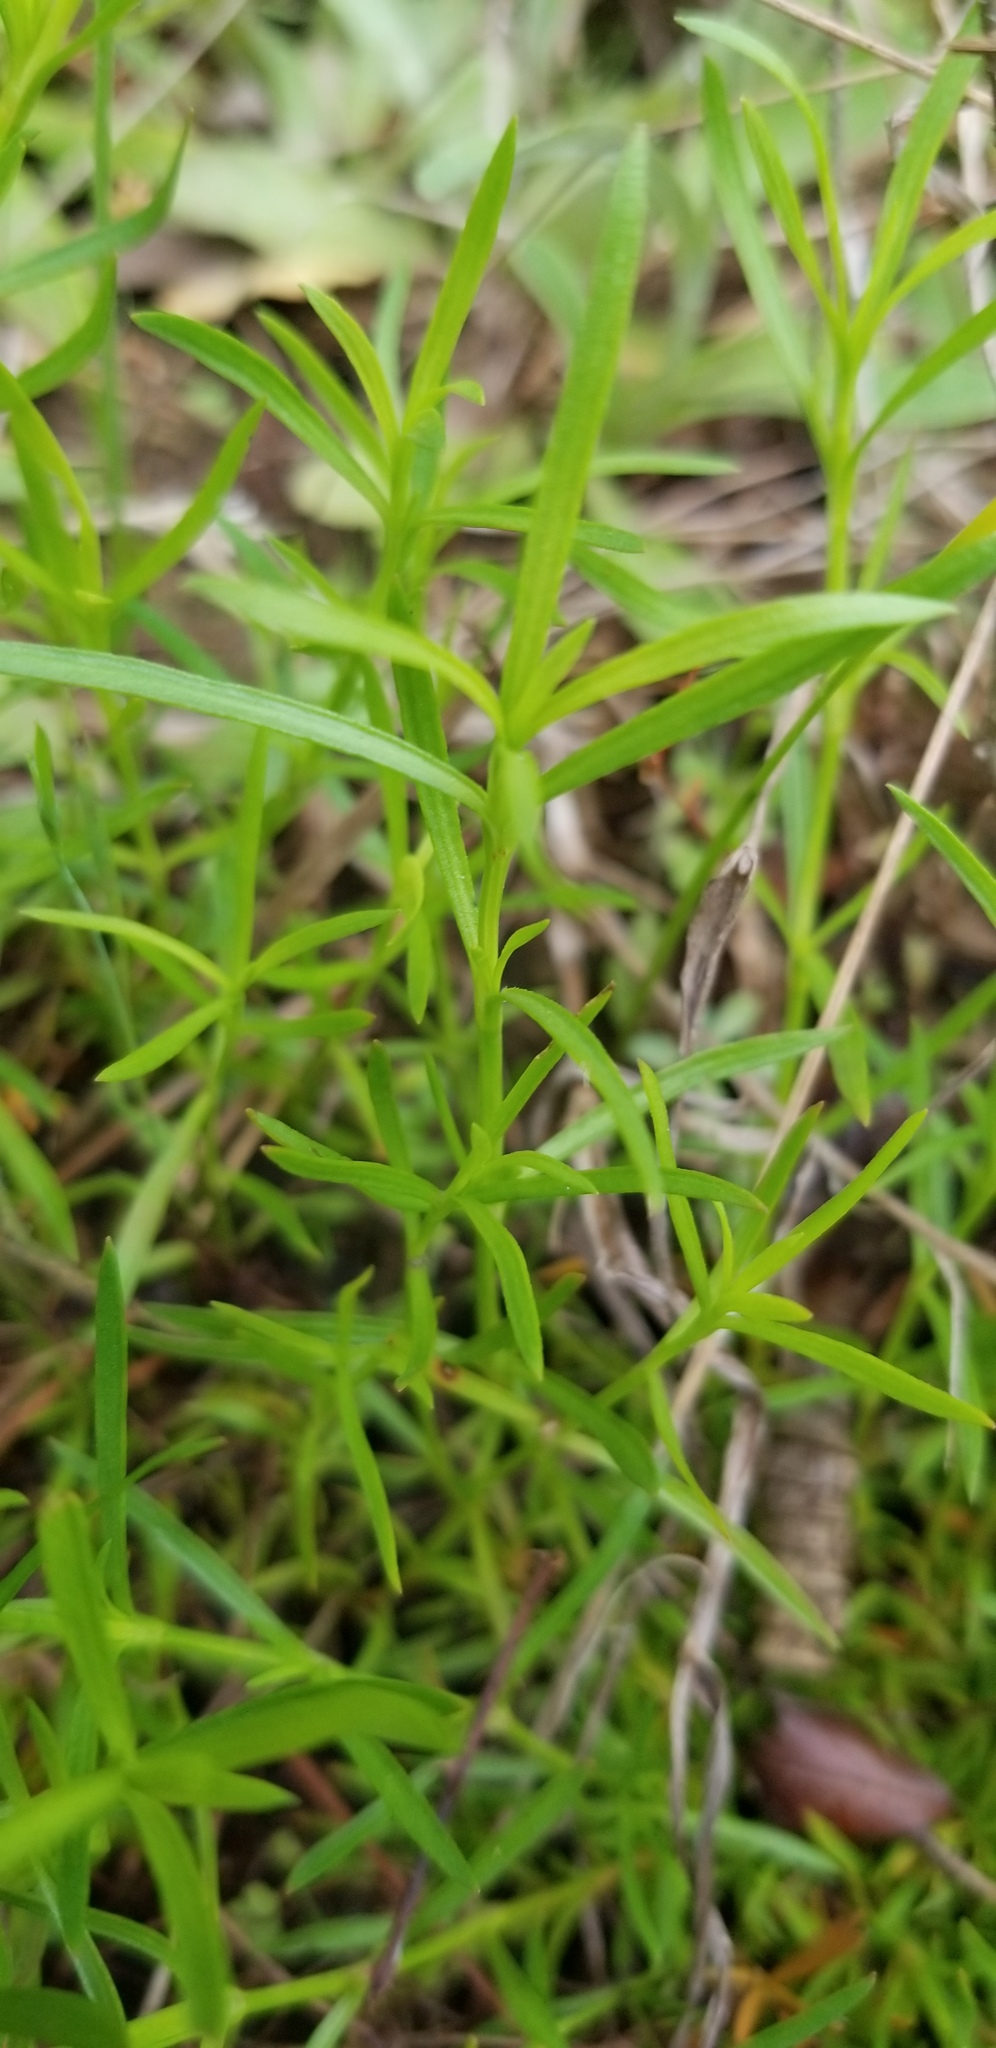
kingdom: Plantae
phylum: Tracheophyta
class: Magnoliopsida
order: Lamiales
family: Tetrachondraceae
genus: Polypremum
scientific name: Polypremum procumbens
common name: Juniper-leaf
